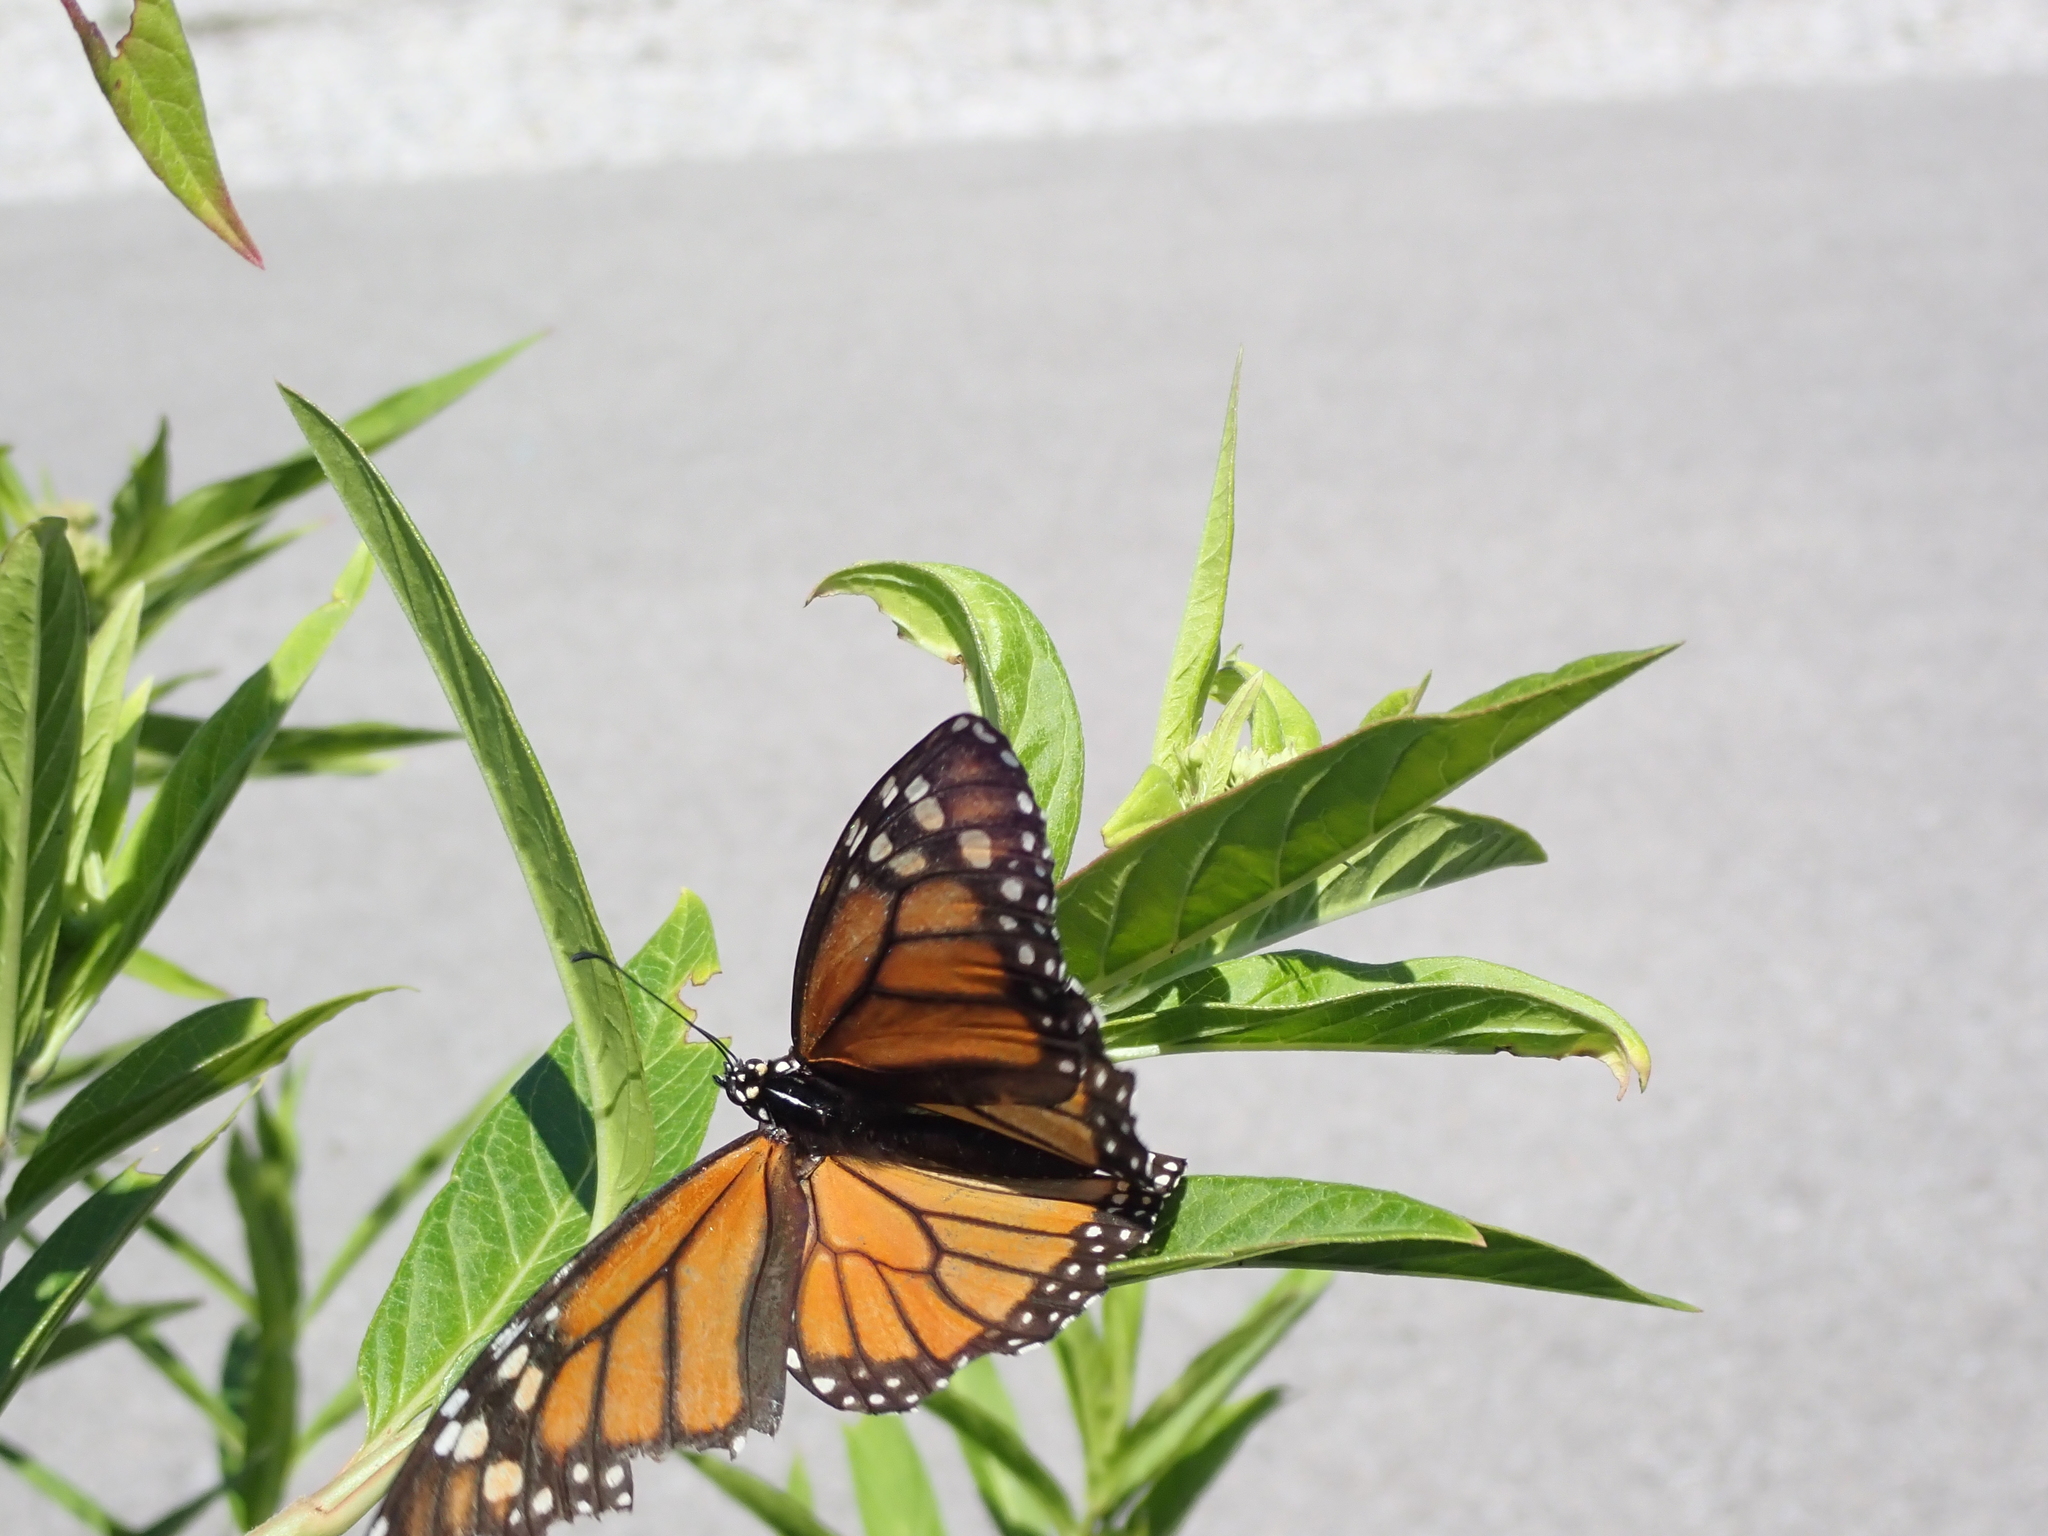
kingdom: Animalia
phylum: Arthropoda
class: Insecta
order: Lepidoptera
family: Nymphalidae
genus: Danaus
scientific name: Danaus plexippus
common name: Monarch
